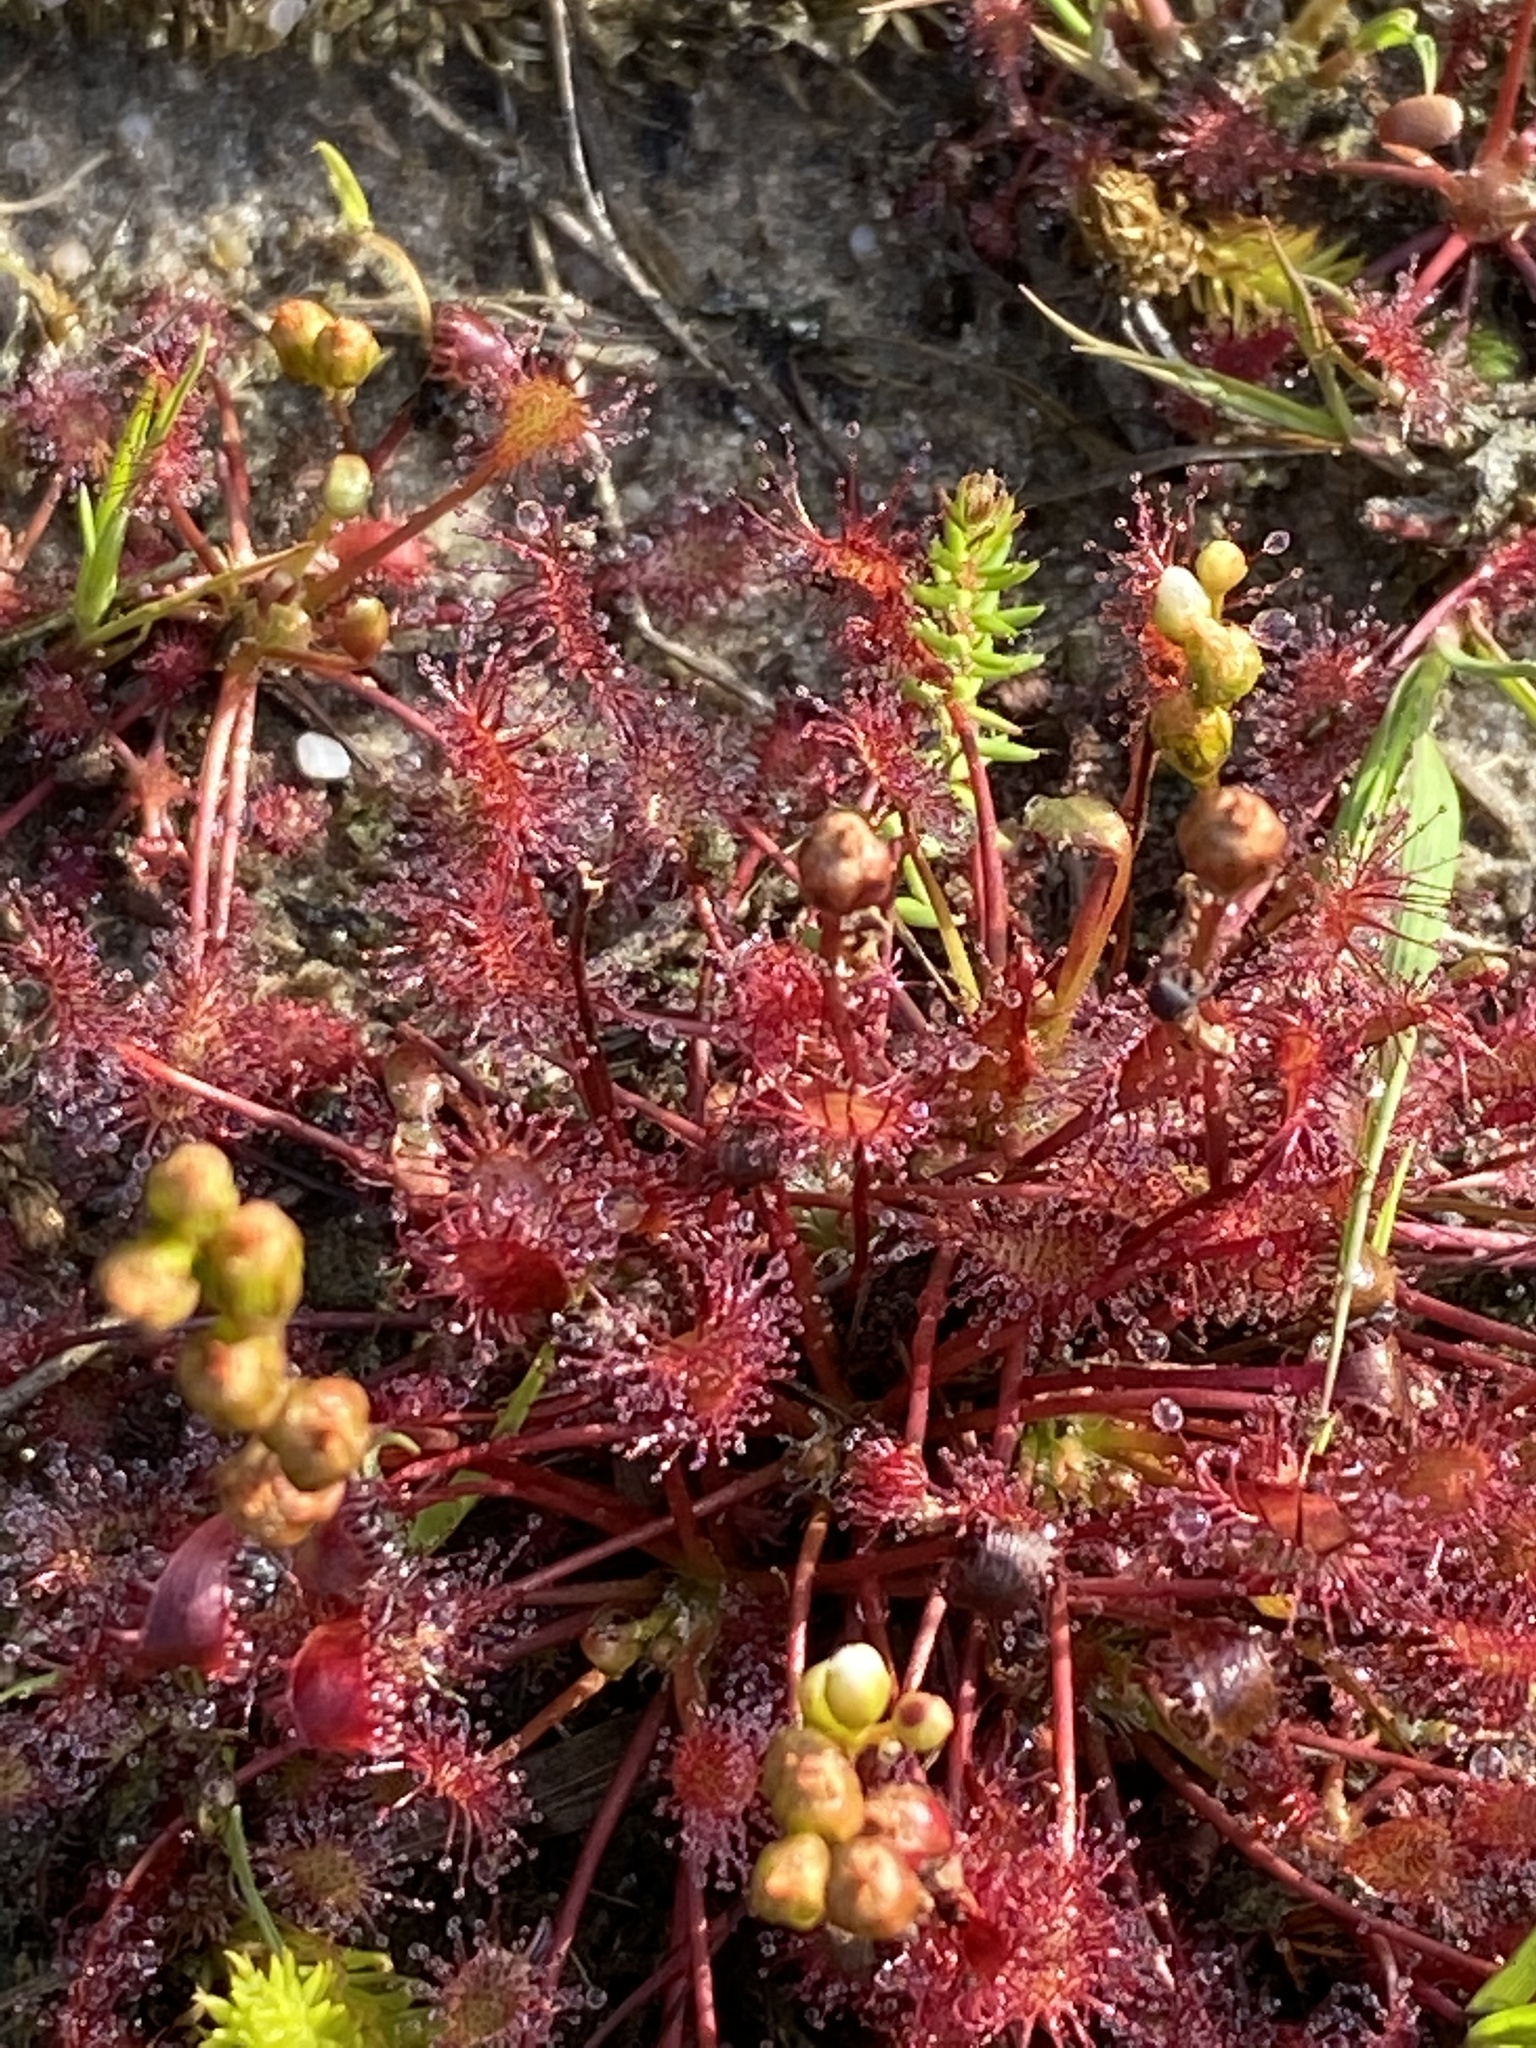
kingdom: Plantae
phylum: Tracheophyta
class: Magnoliopsida
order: Caryophyllales
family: Droseraceae
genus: Drosera
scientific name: Drosera intermedia
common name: Oblong-leaved sundew
